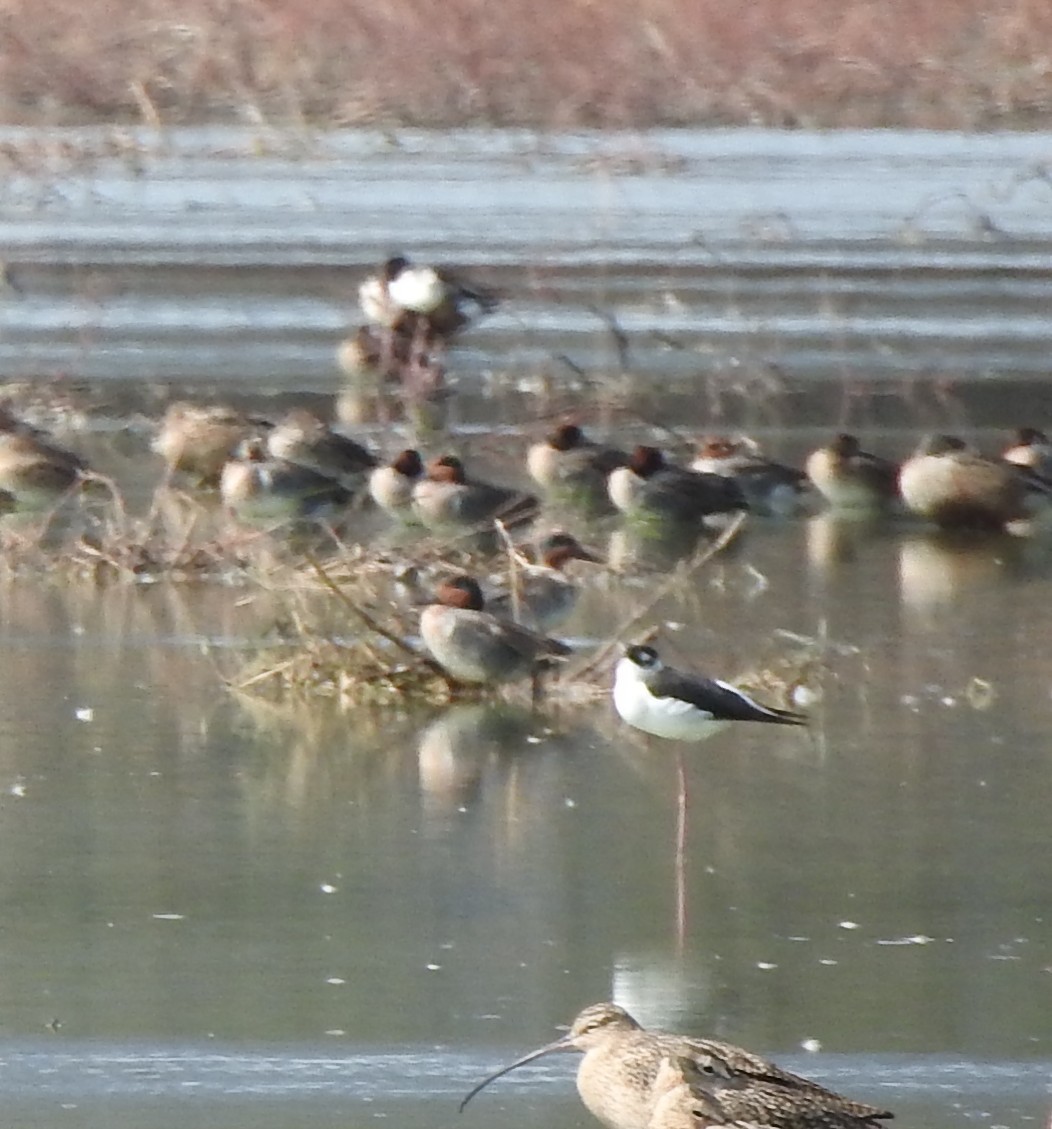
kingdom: Animalia
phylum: Chordata
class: Aves
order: Charadriiformes
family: Recurvirostridae
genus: Himantopus
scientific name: Himantopus mexicanus
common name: Black-necked stilt
